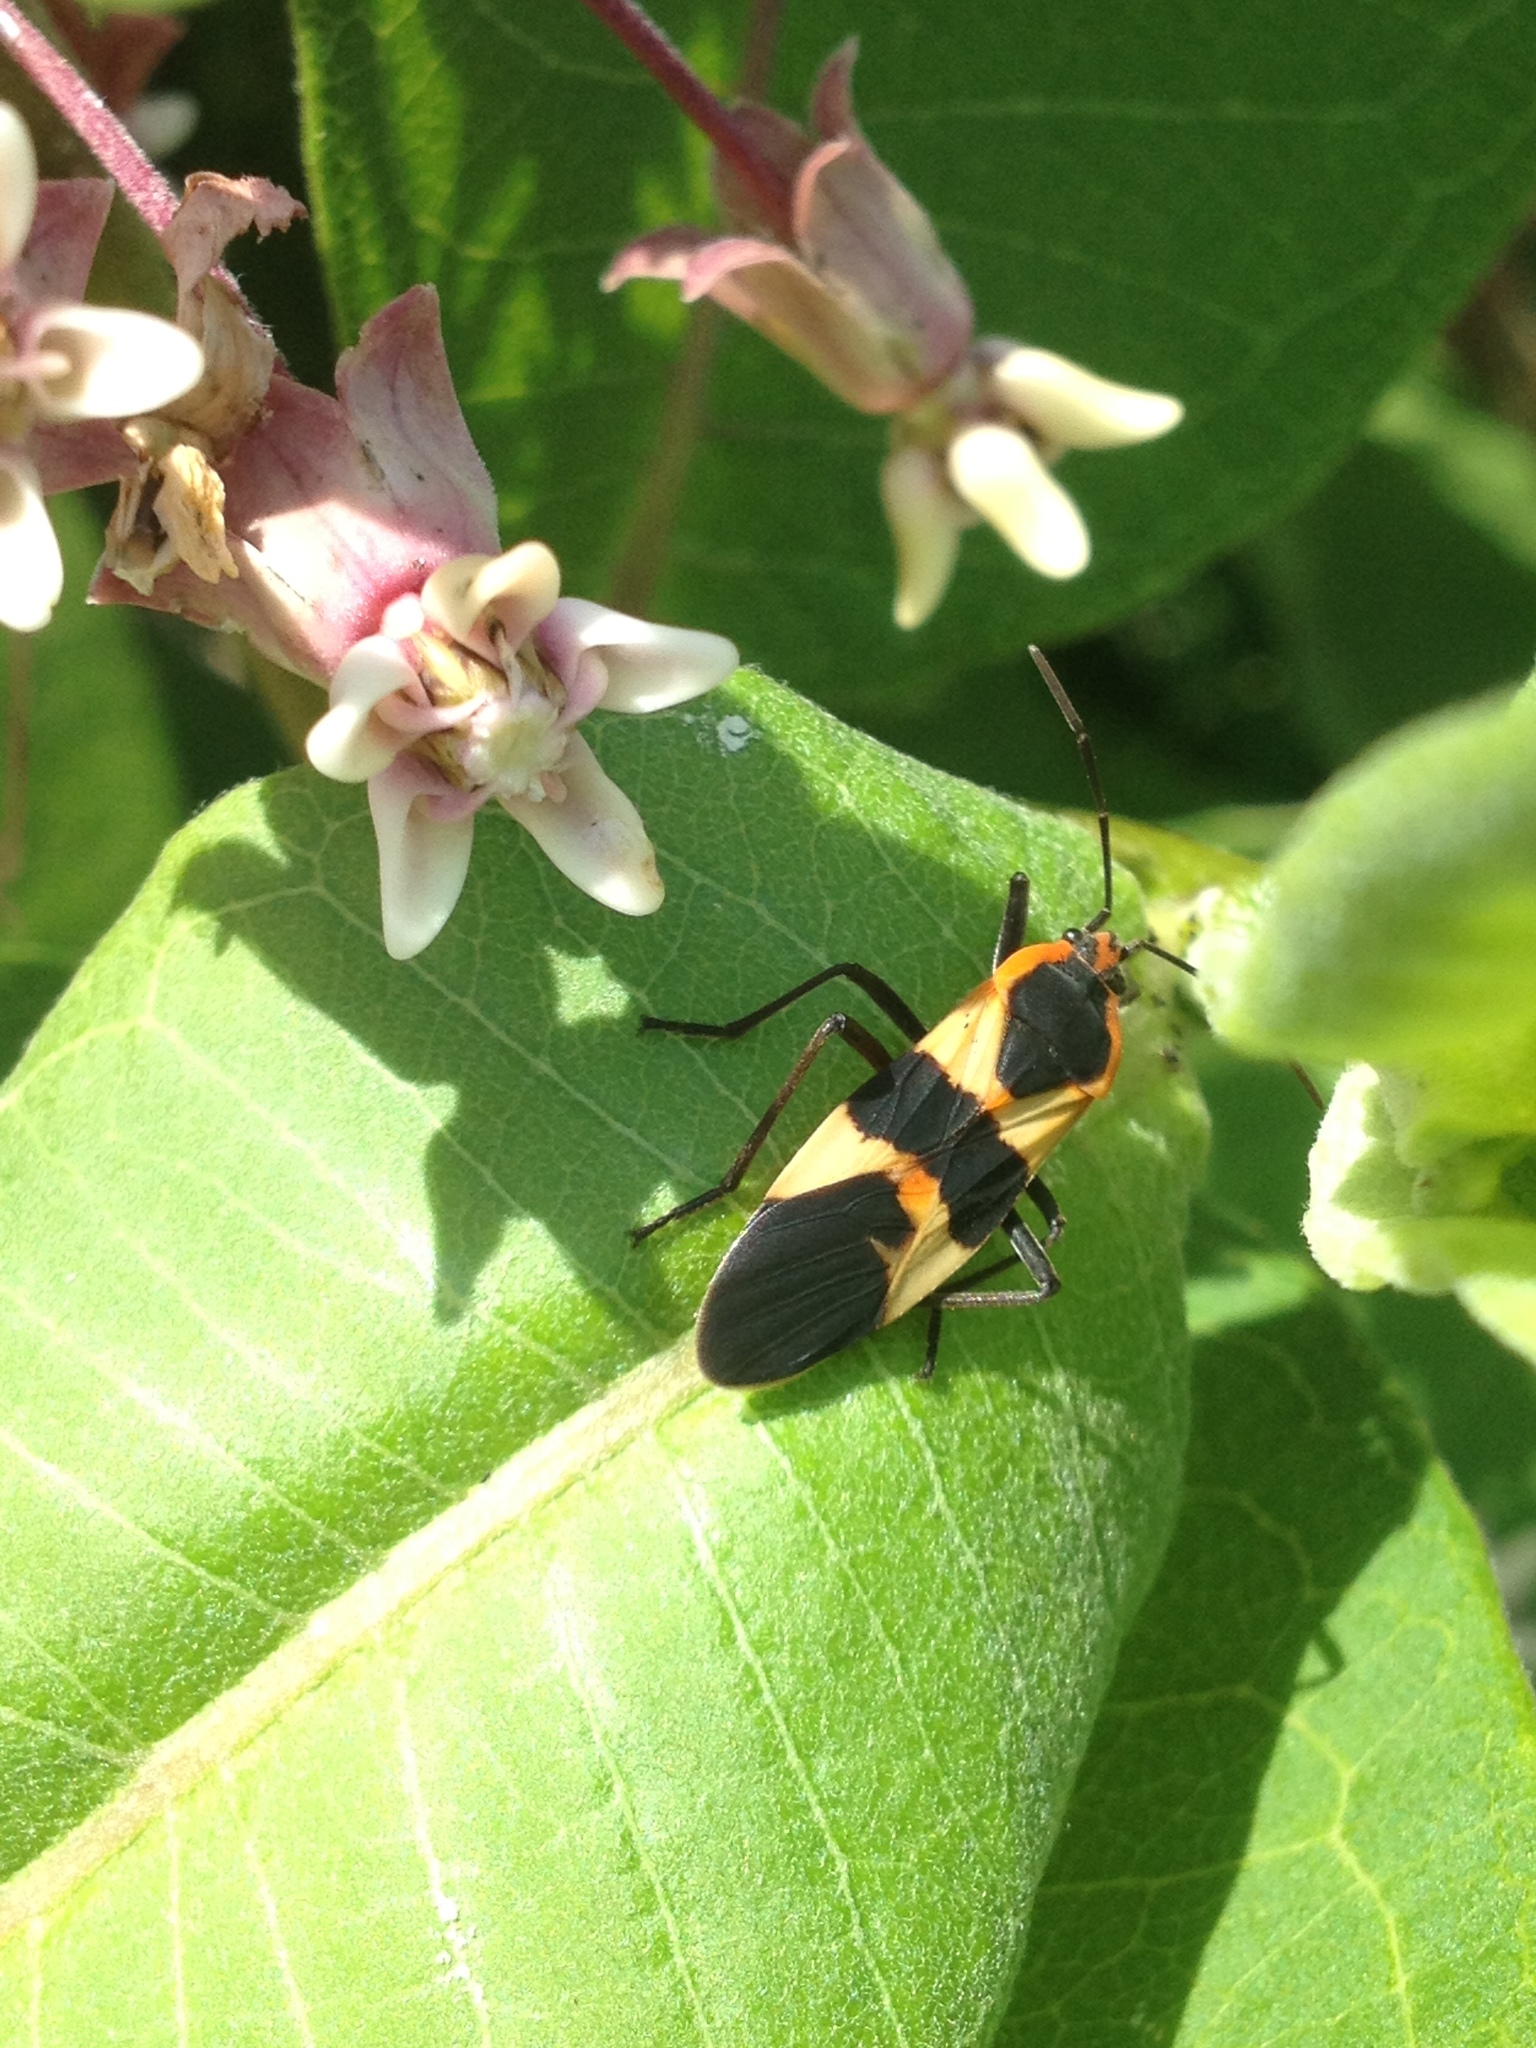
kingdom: Animalia
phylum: Arthropoda
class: Insecta
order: Hemiptera
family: Lygaeidae
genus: Oncopeltus
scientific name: Oncopeltus fasciatus
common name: Large milkweed bug
